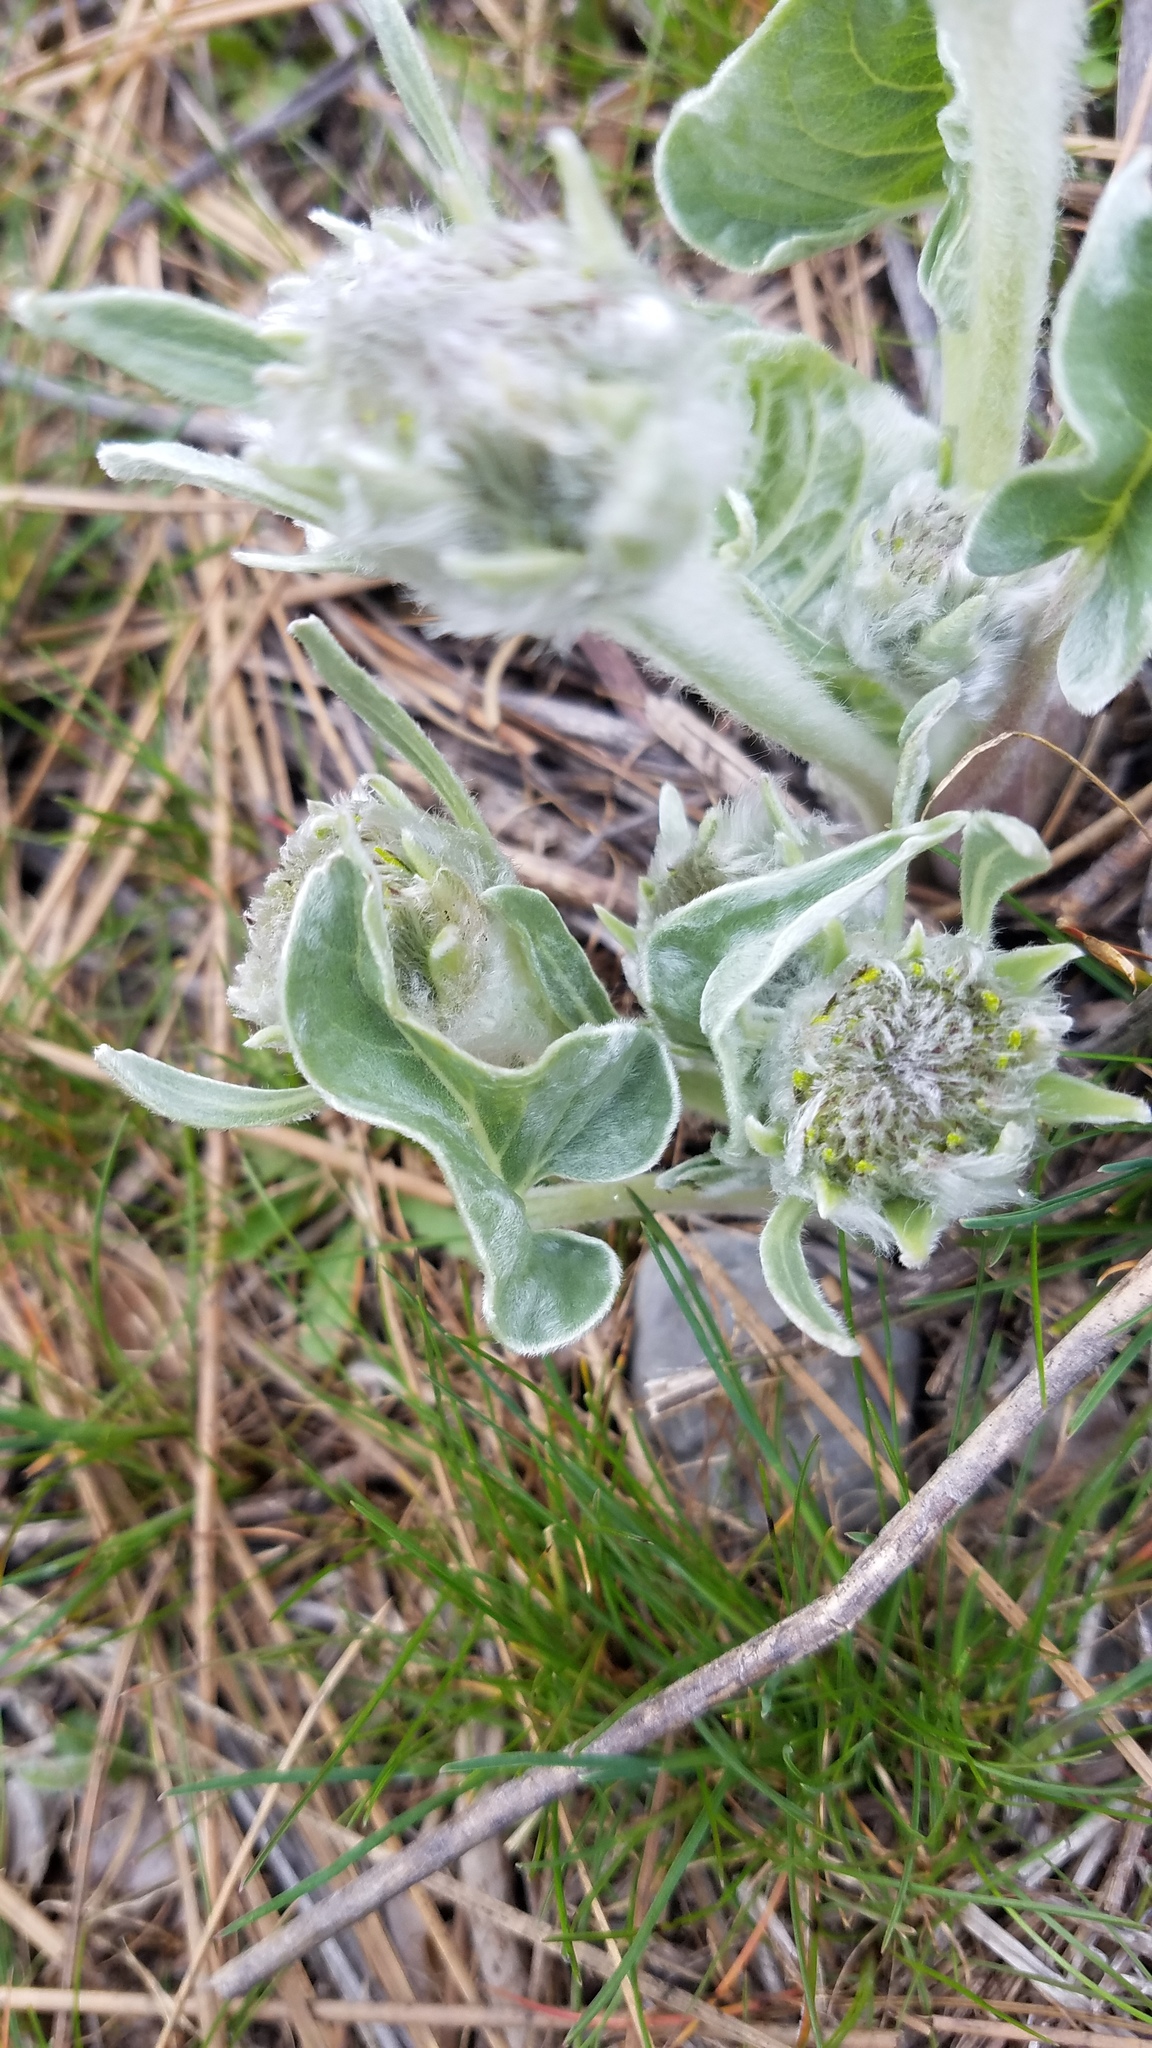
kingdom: Plantae
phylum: Tracheophyta
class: Magnoliopsida
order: Asterales
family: Asteraceae
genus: Wyethia
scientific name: Wyethia sagittata
